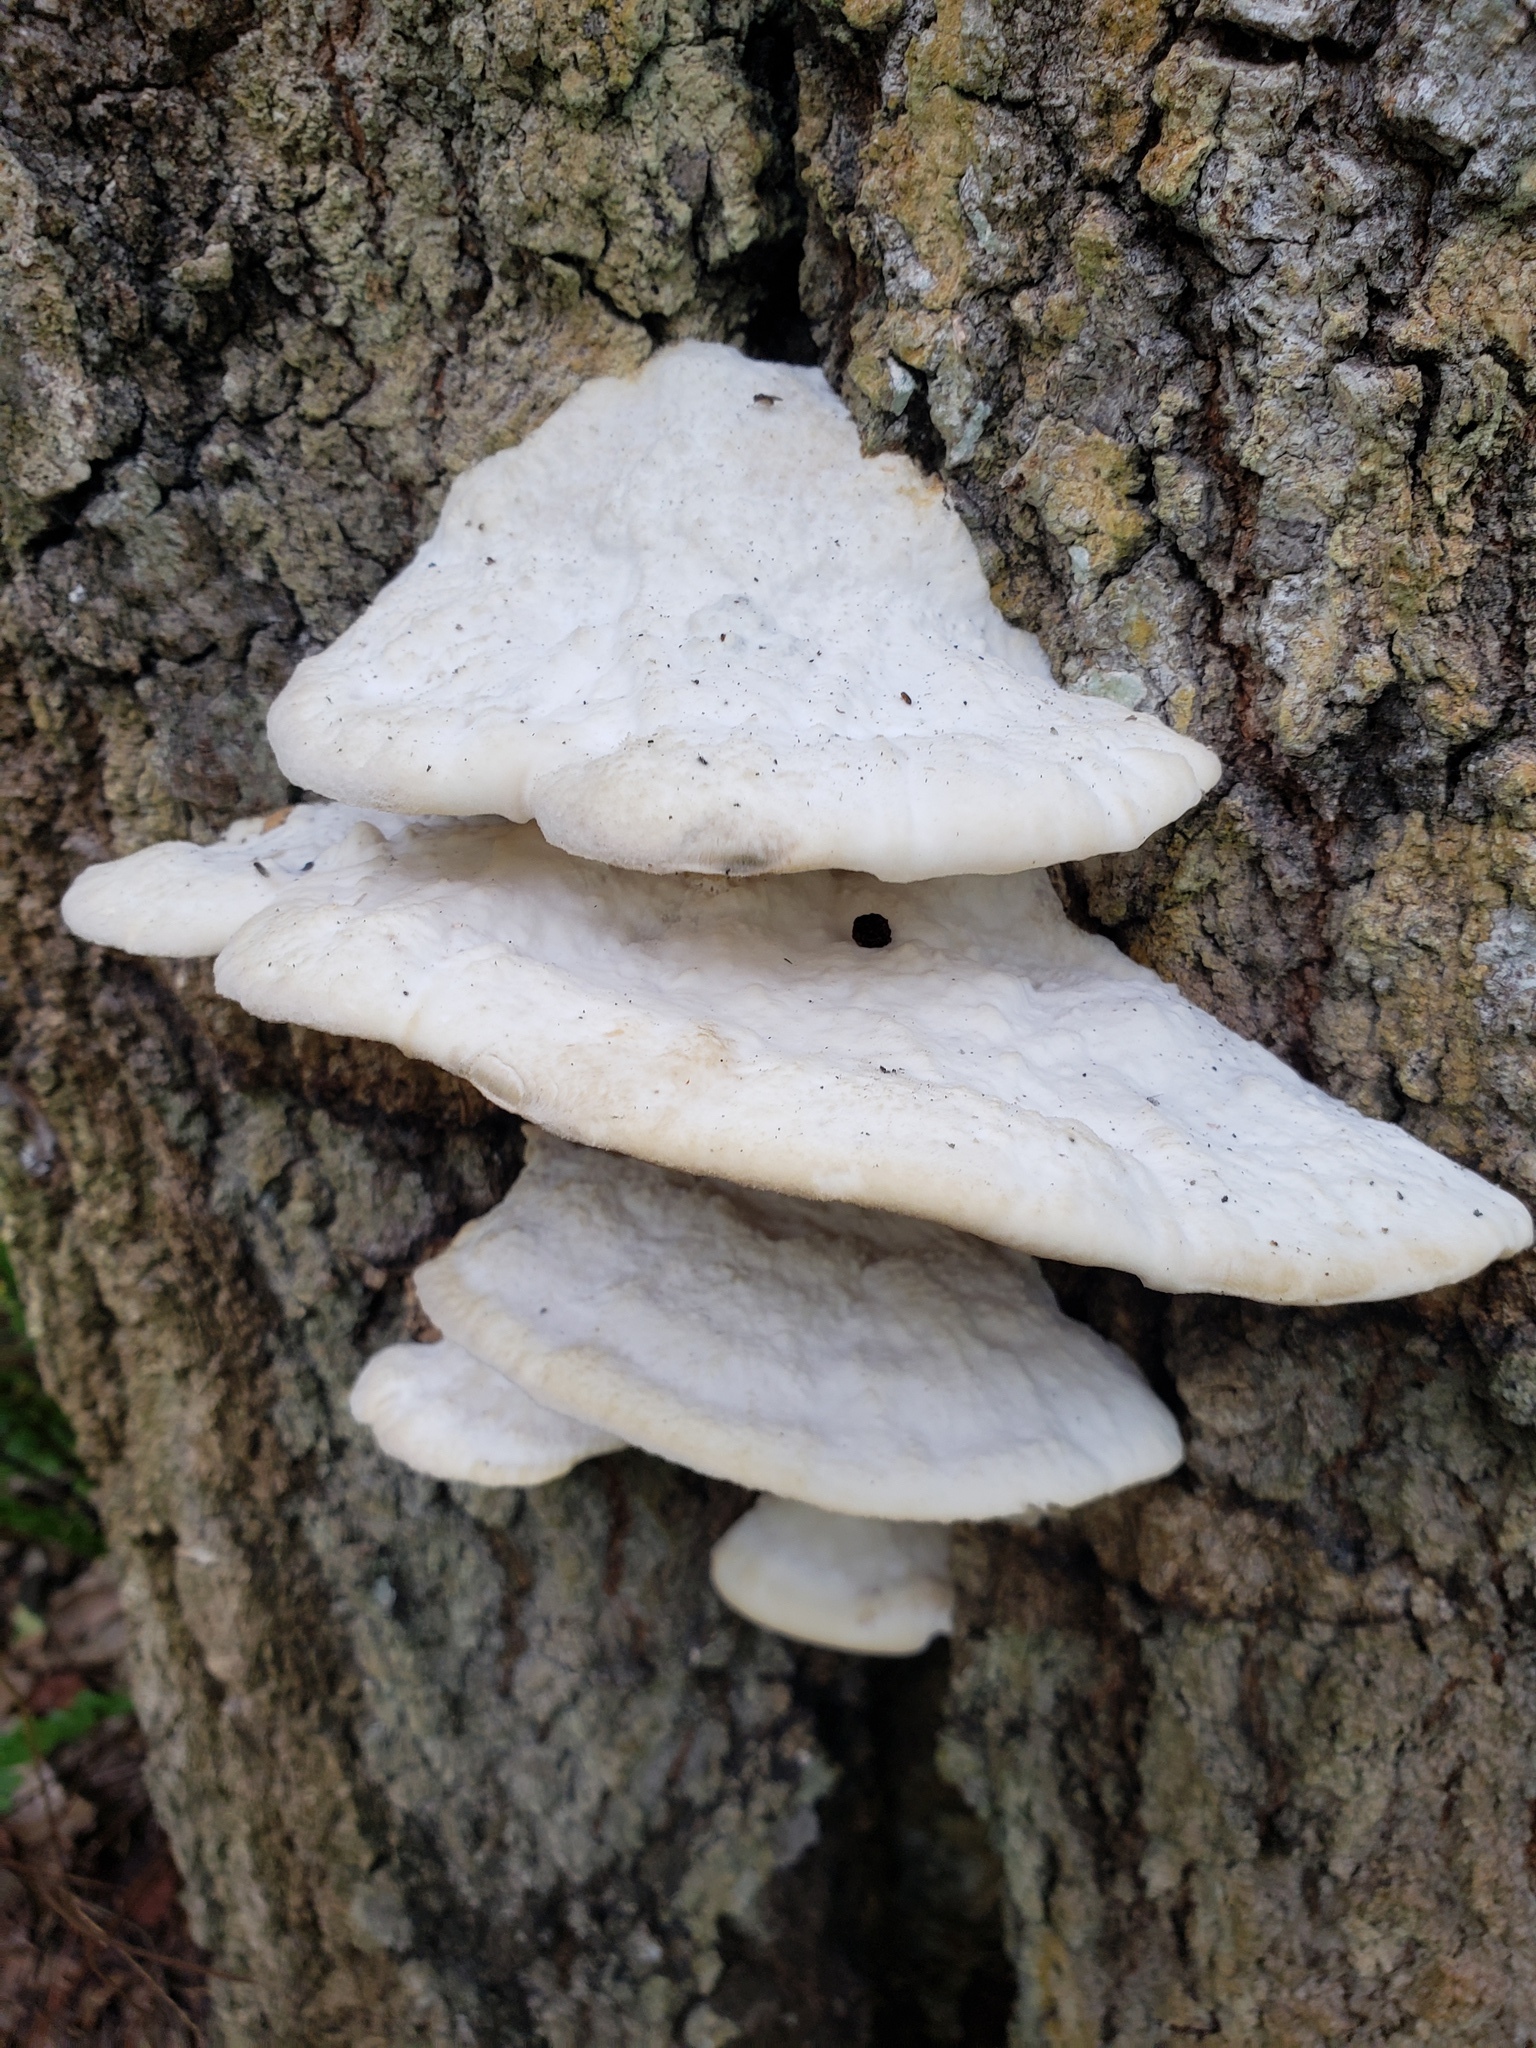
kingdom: Fungi
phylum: Basidiomycota
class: Agaricomycetes
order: Polyporales
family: Meruliaceae
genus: Pappia
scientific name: Pappia fissilis
